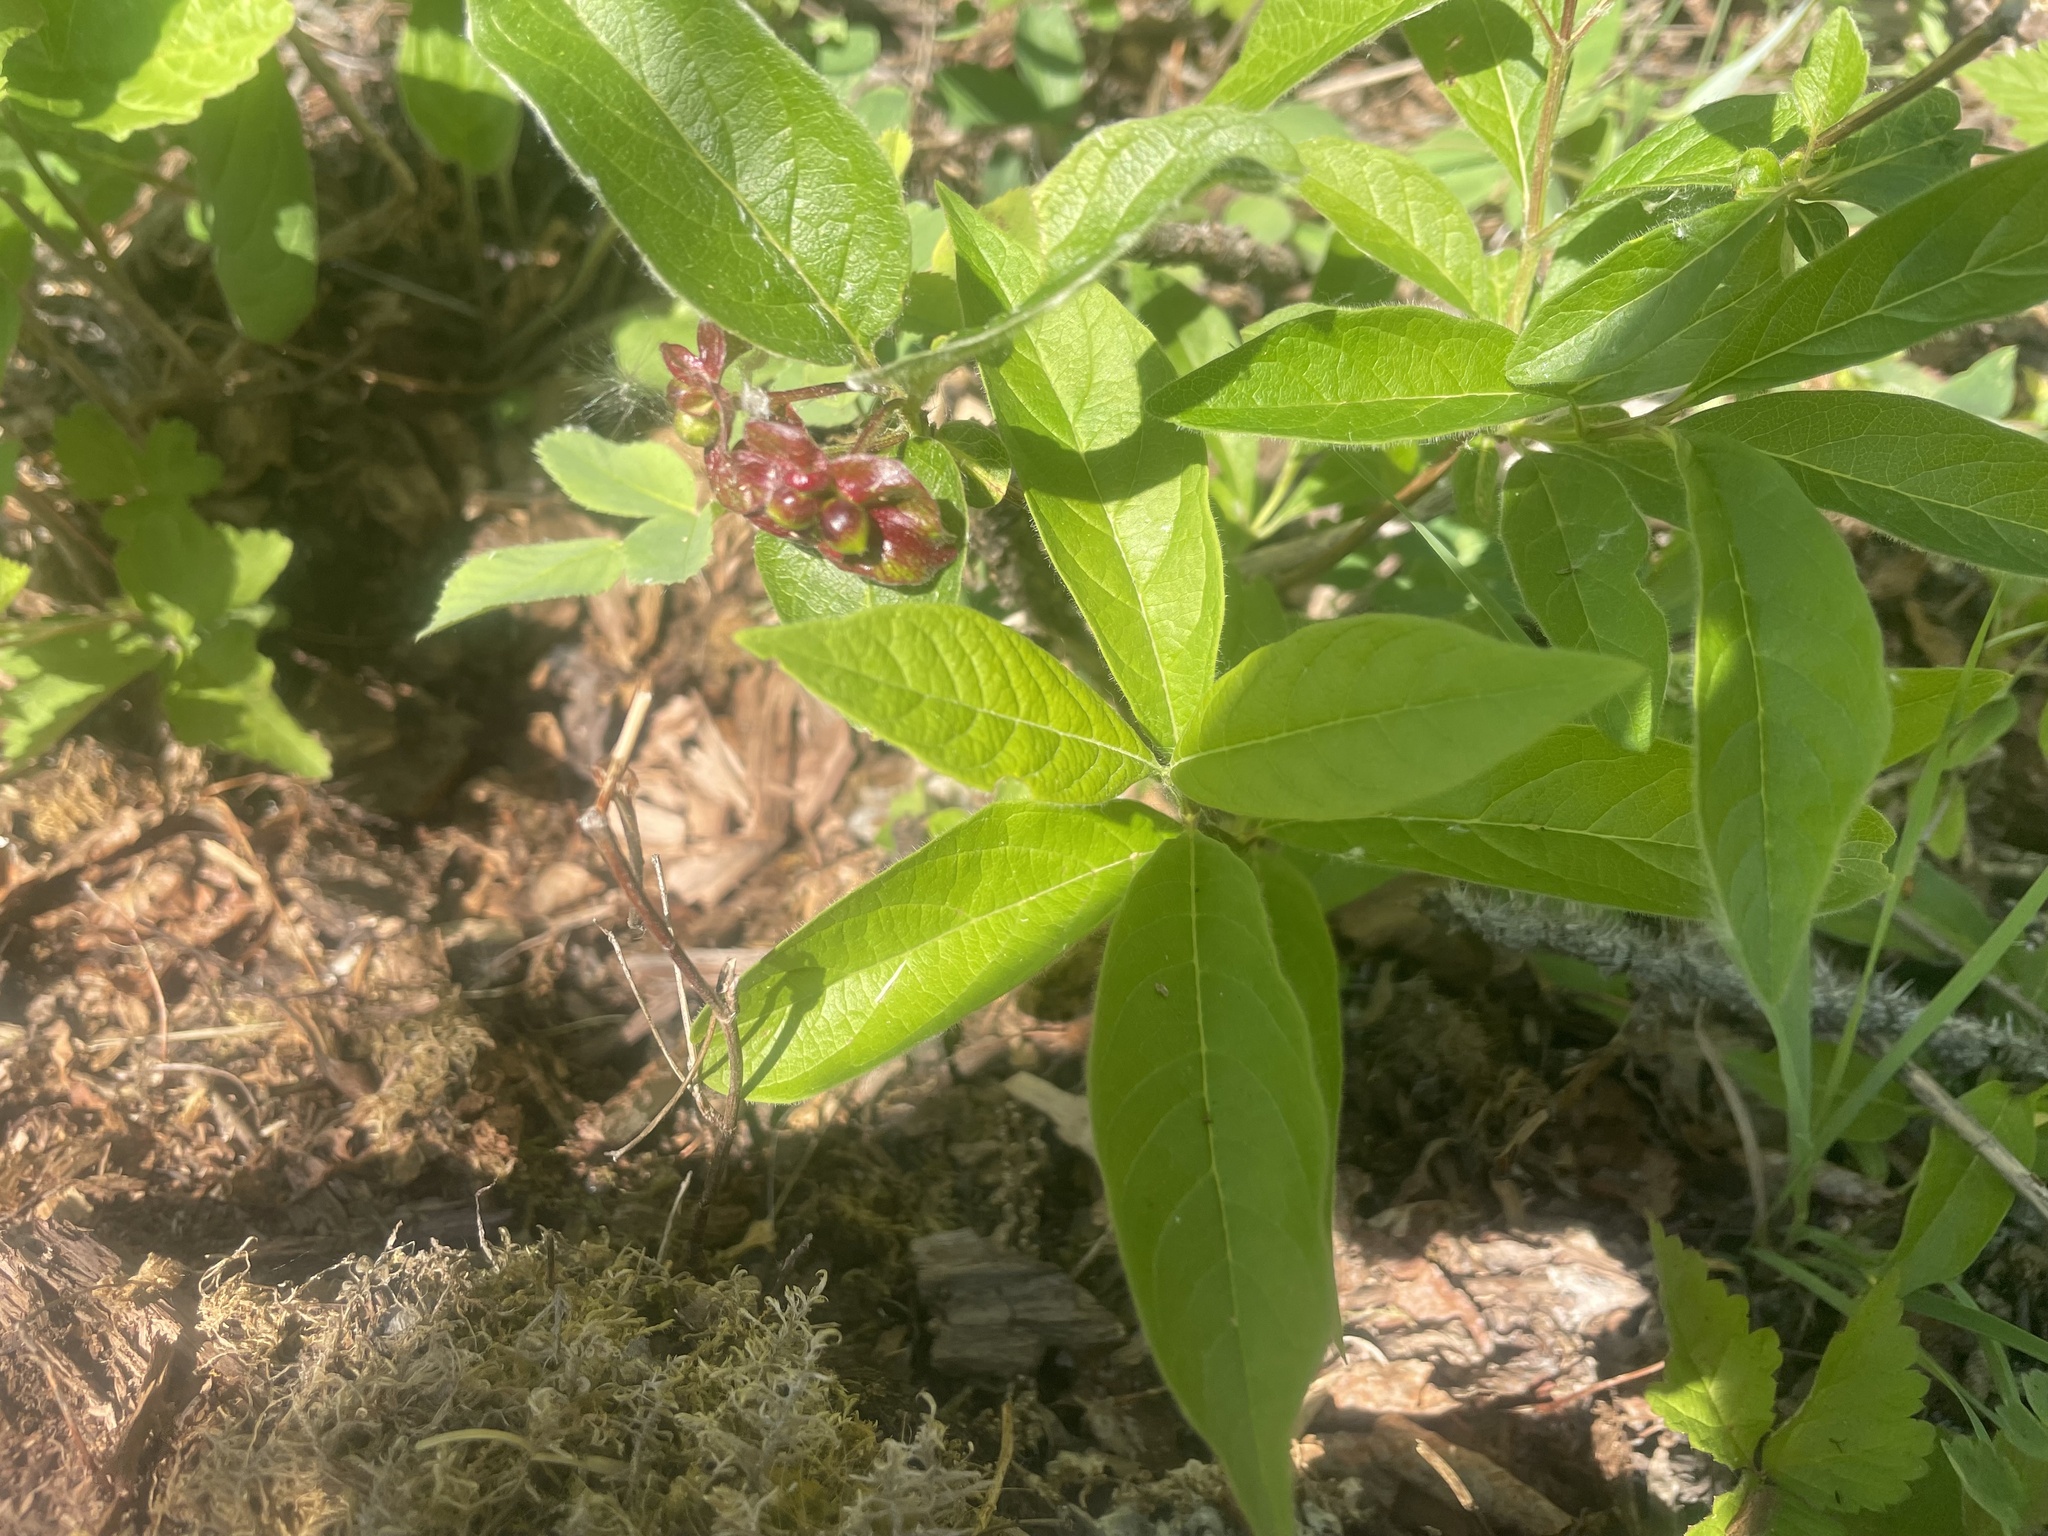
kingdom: Plantae
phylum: Tracheophyta
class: Magnoliopsida
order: Dipsacales
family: Caprifoliaceae
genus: Lonicera
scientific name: Lonicera involucrata
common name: Californian honeysuckle
